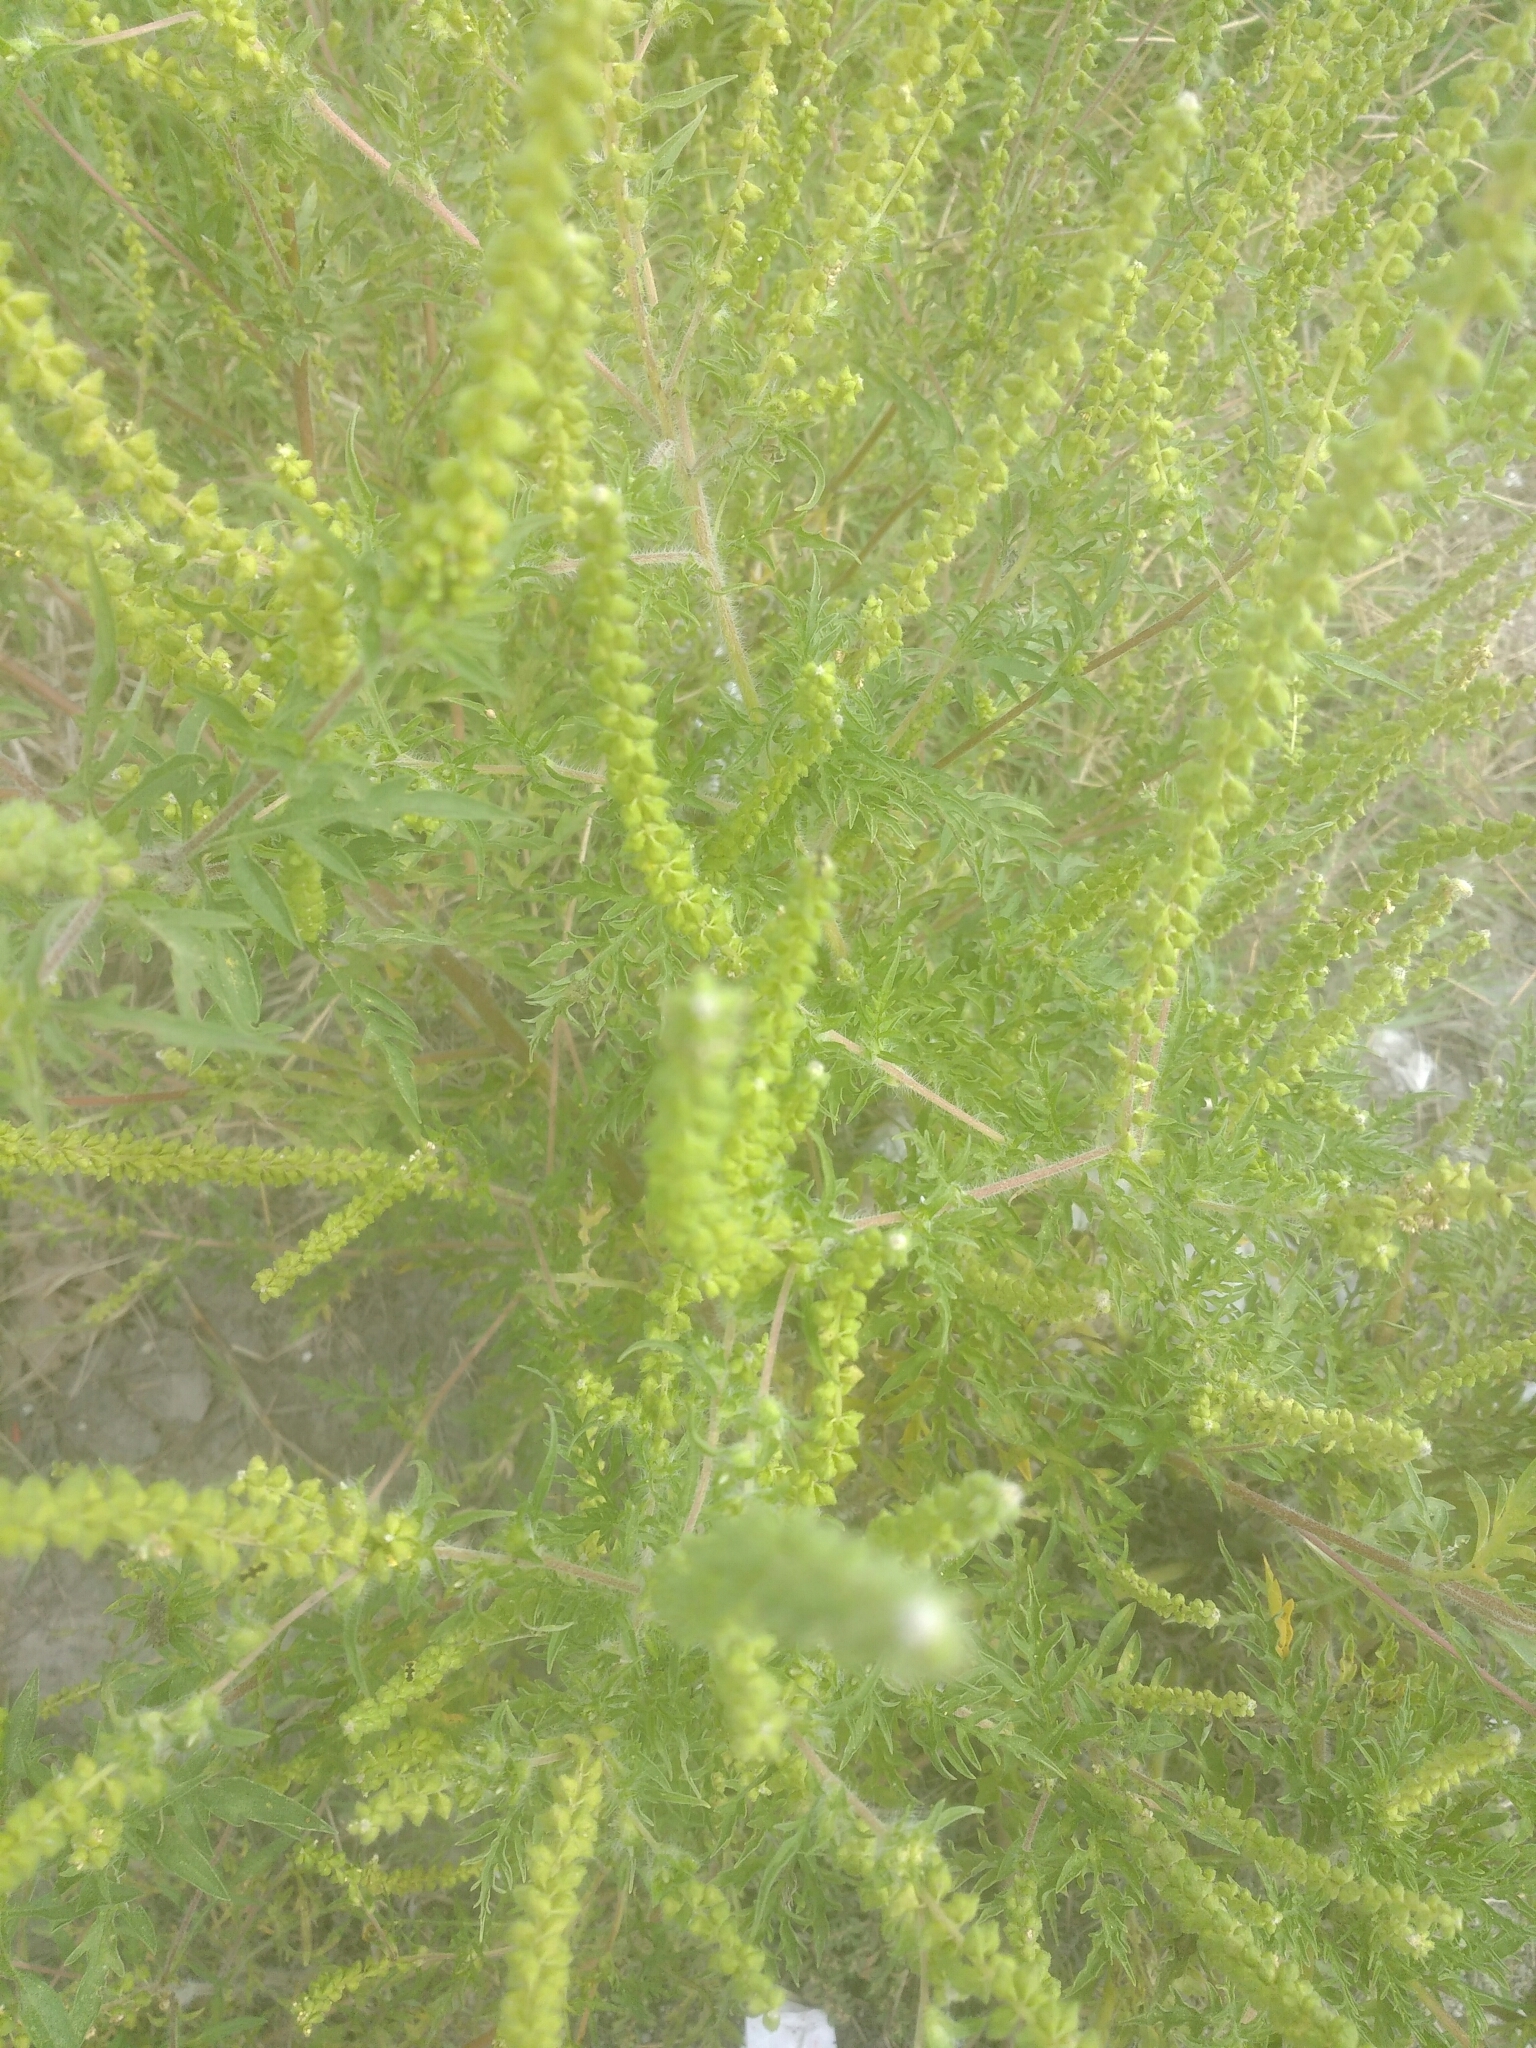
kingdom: Plantae
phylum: Tracheophyta
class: Magnoliopsida
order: Asterales
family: Asteraceae
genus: Ambrosia
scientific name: Ambrosia artemisiifolia
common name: Annual ragweed
